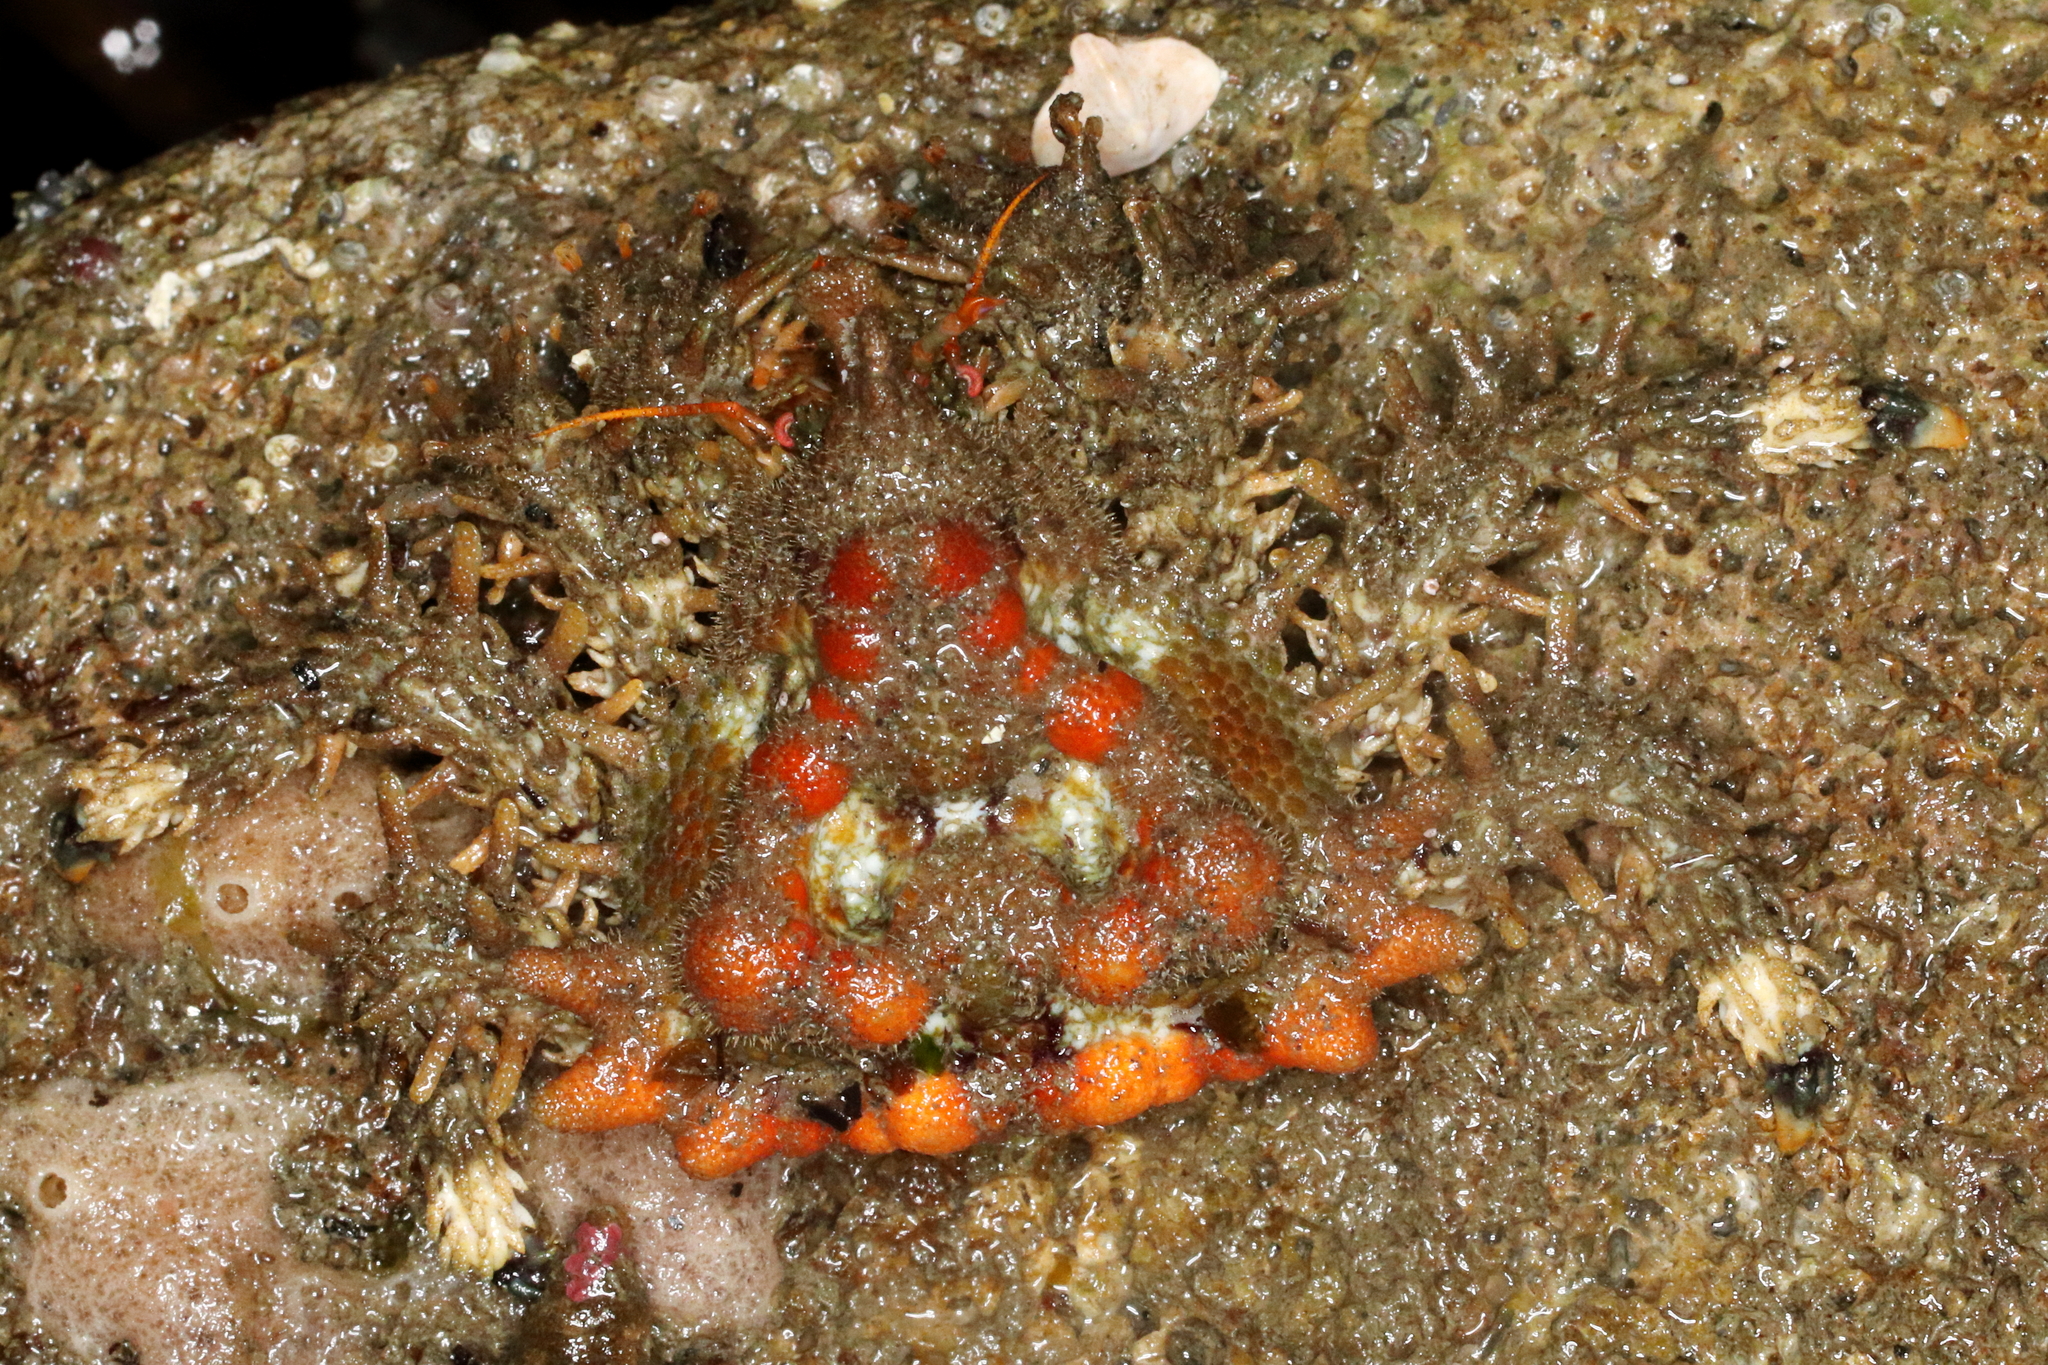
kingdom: Animalia
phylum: Arthropoda
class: Malacostraca
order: Decapoda
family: Lithodidae
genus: Phyllolithodes
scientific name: Phyllolithodes papillosus
